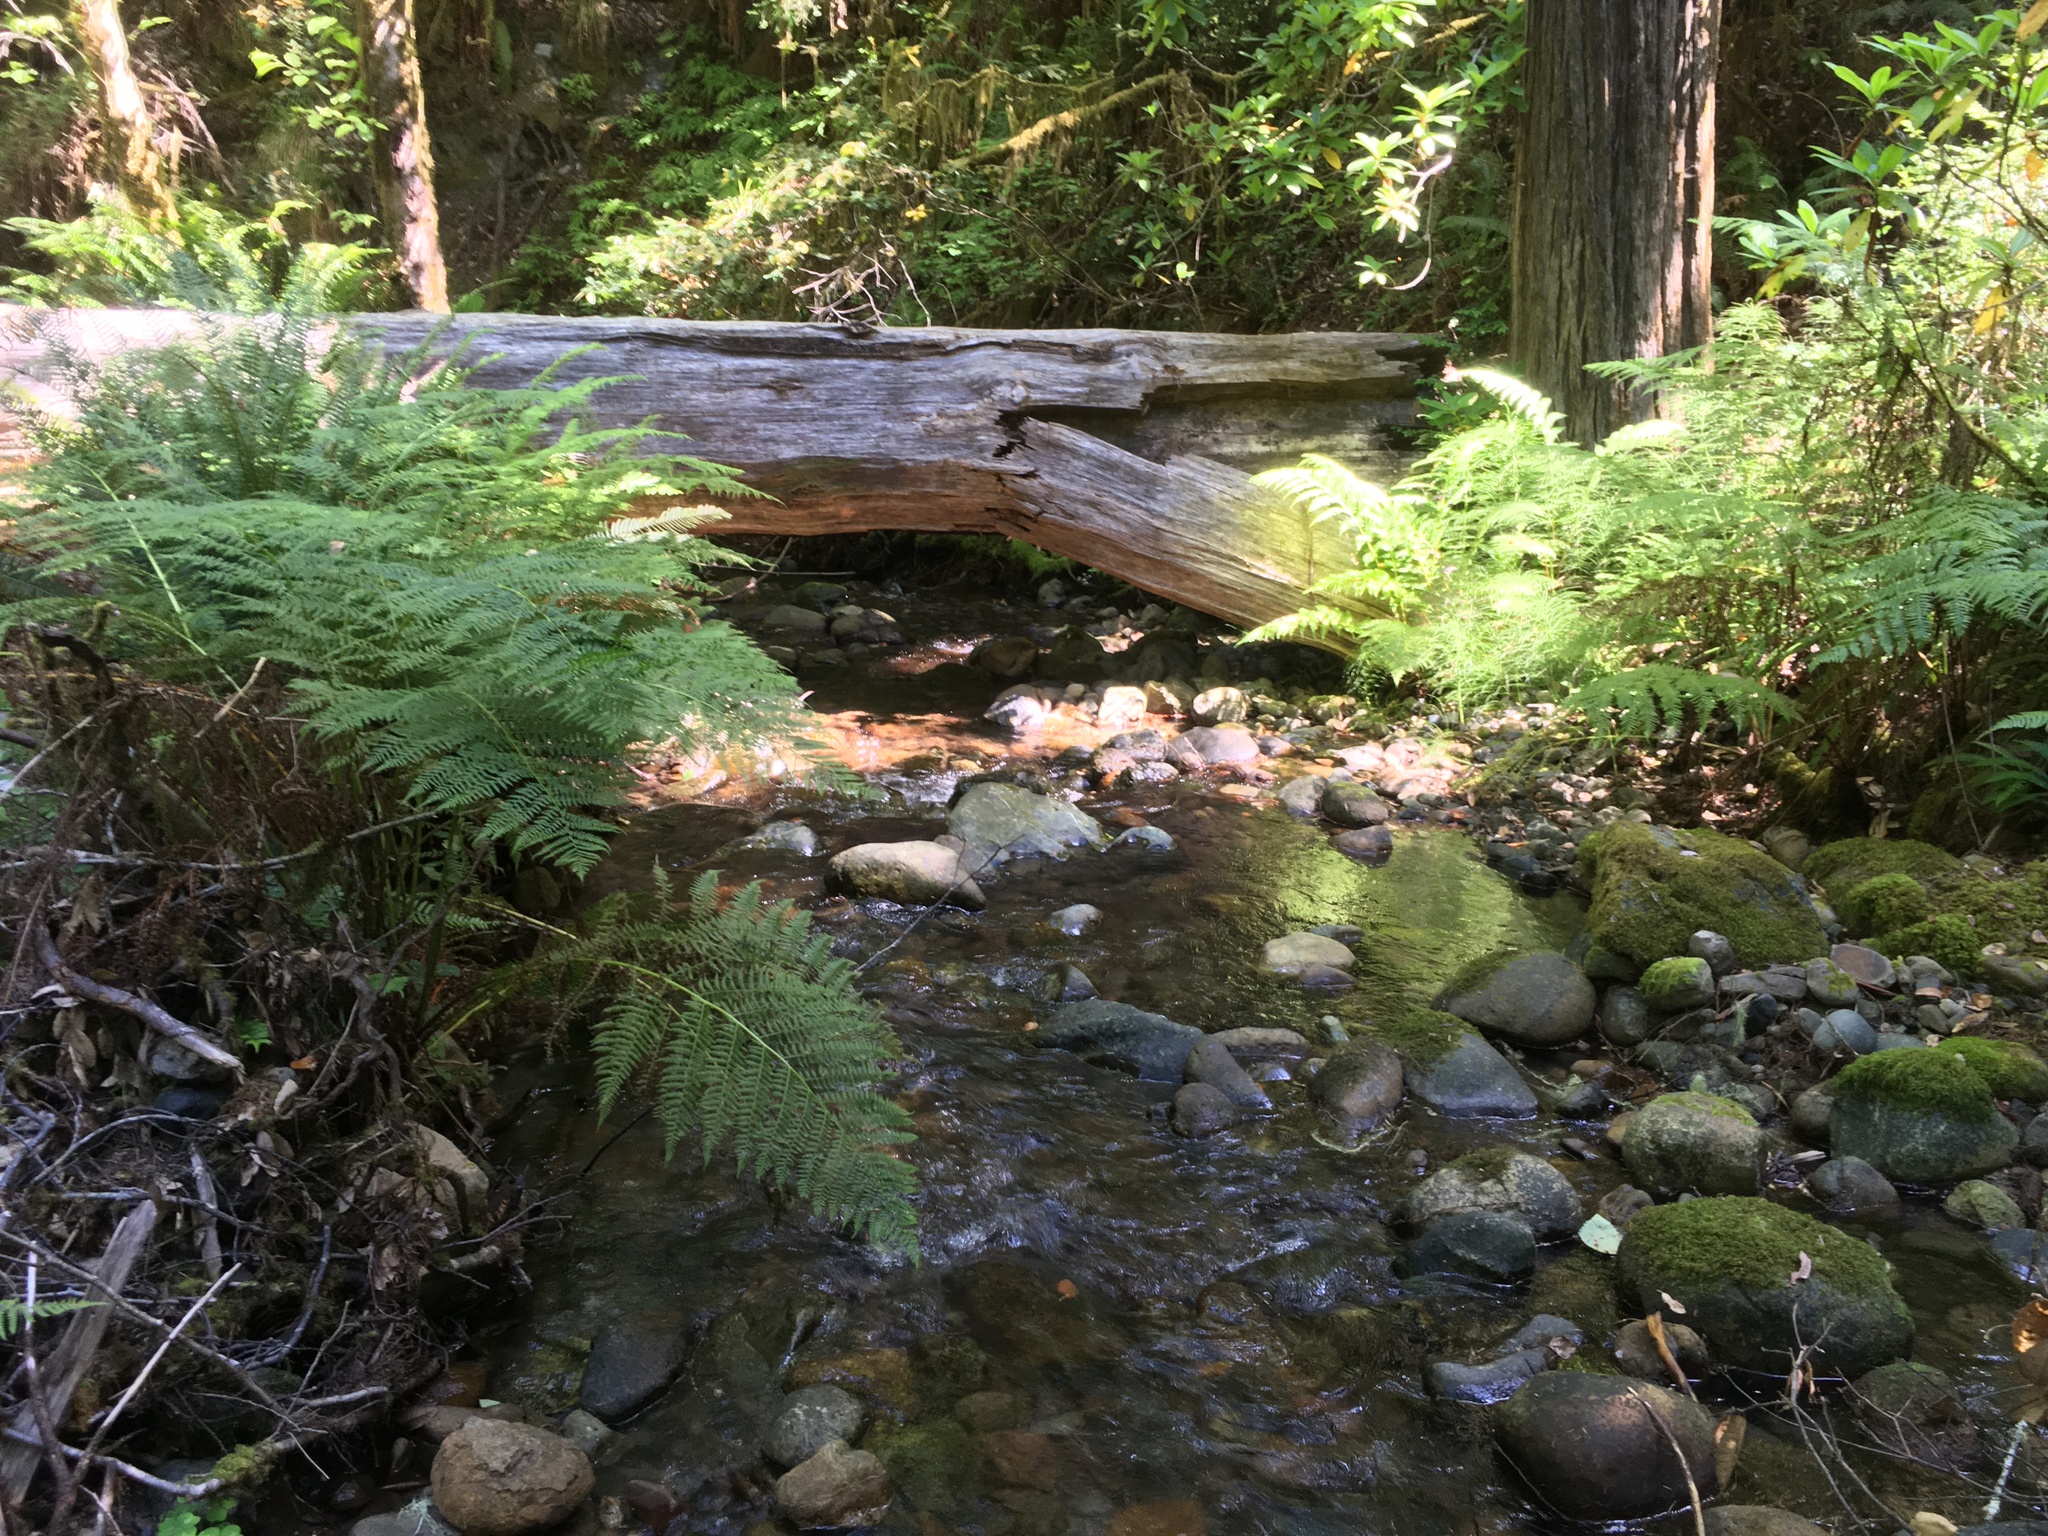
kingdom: Animalia
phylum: Chordata
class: Amphibia
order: Anura
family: Ranidae
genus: Rana
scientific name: Rana boylii
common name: Foothill yellow-legged frog
